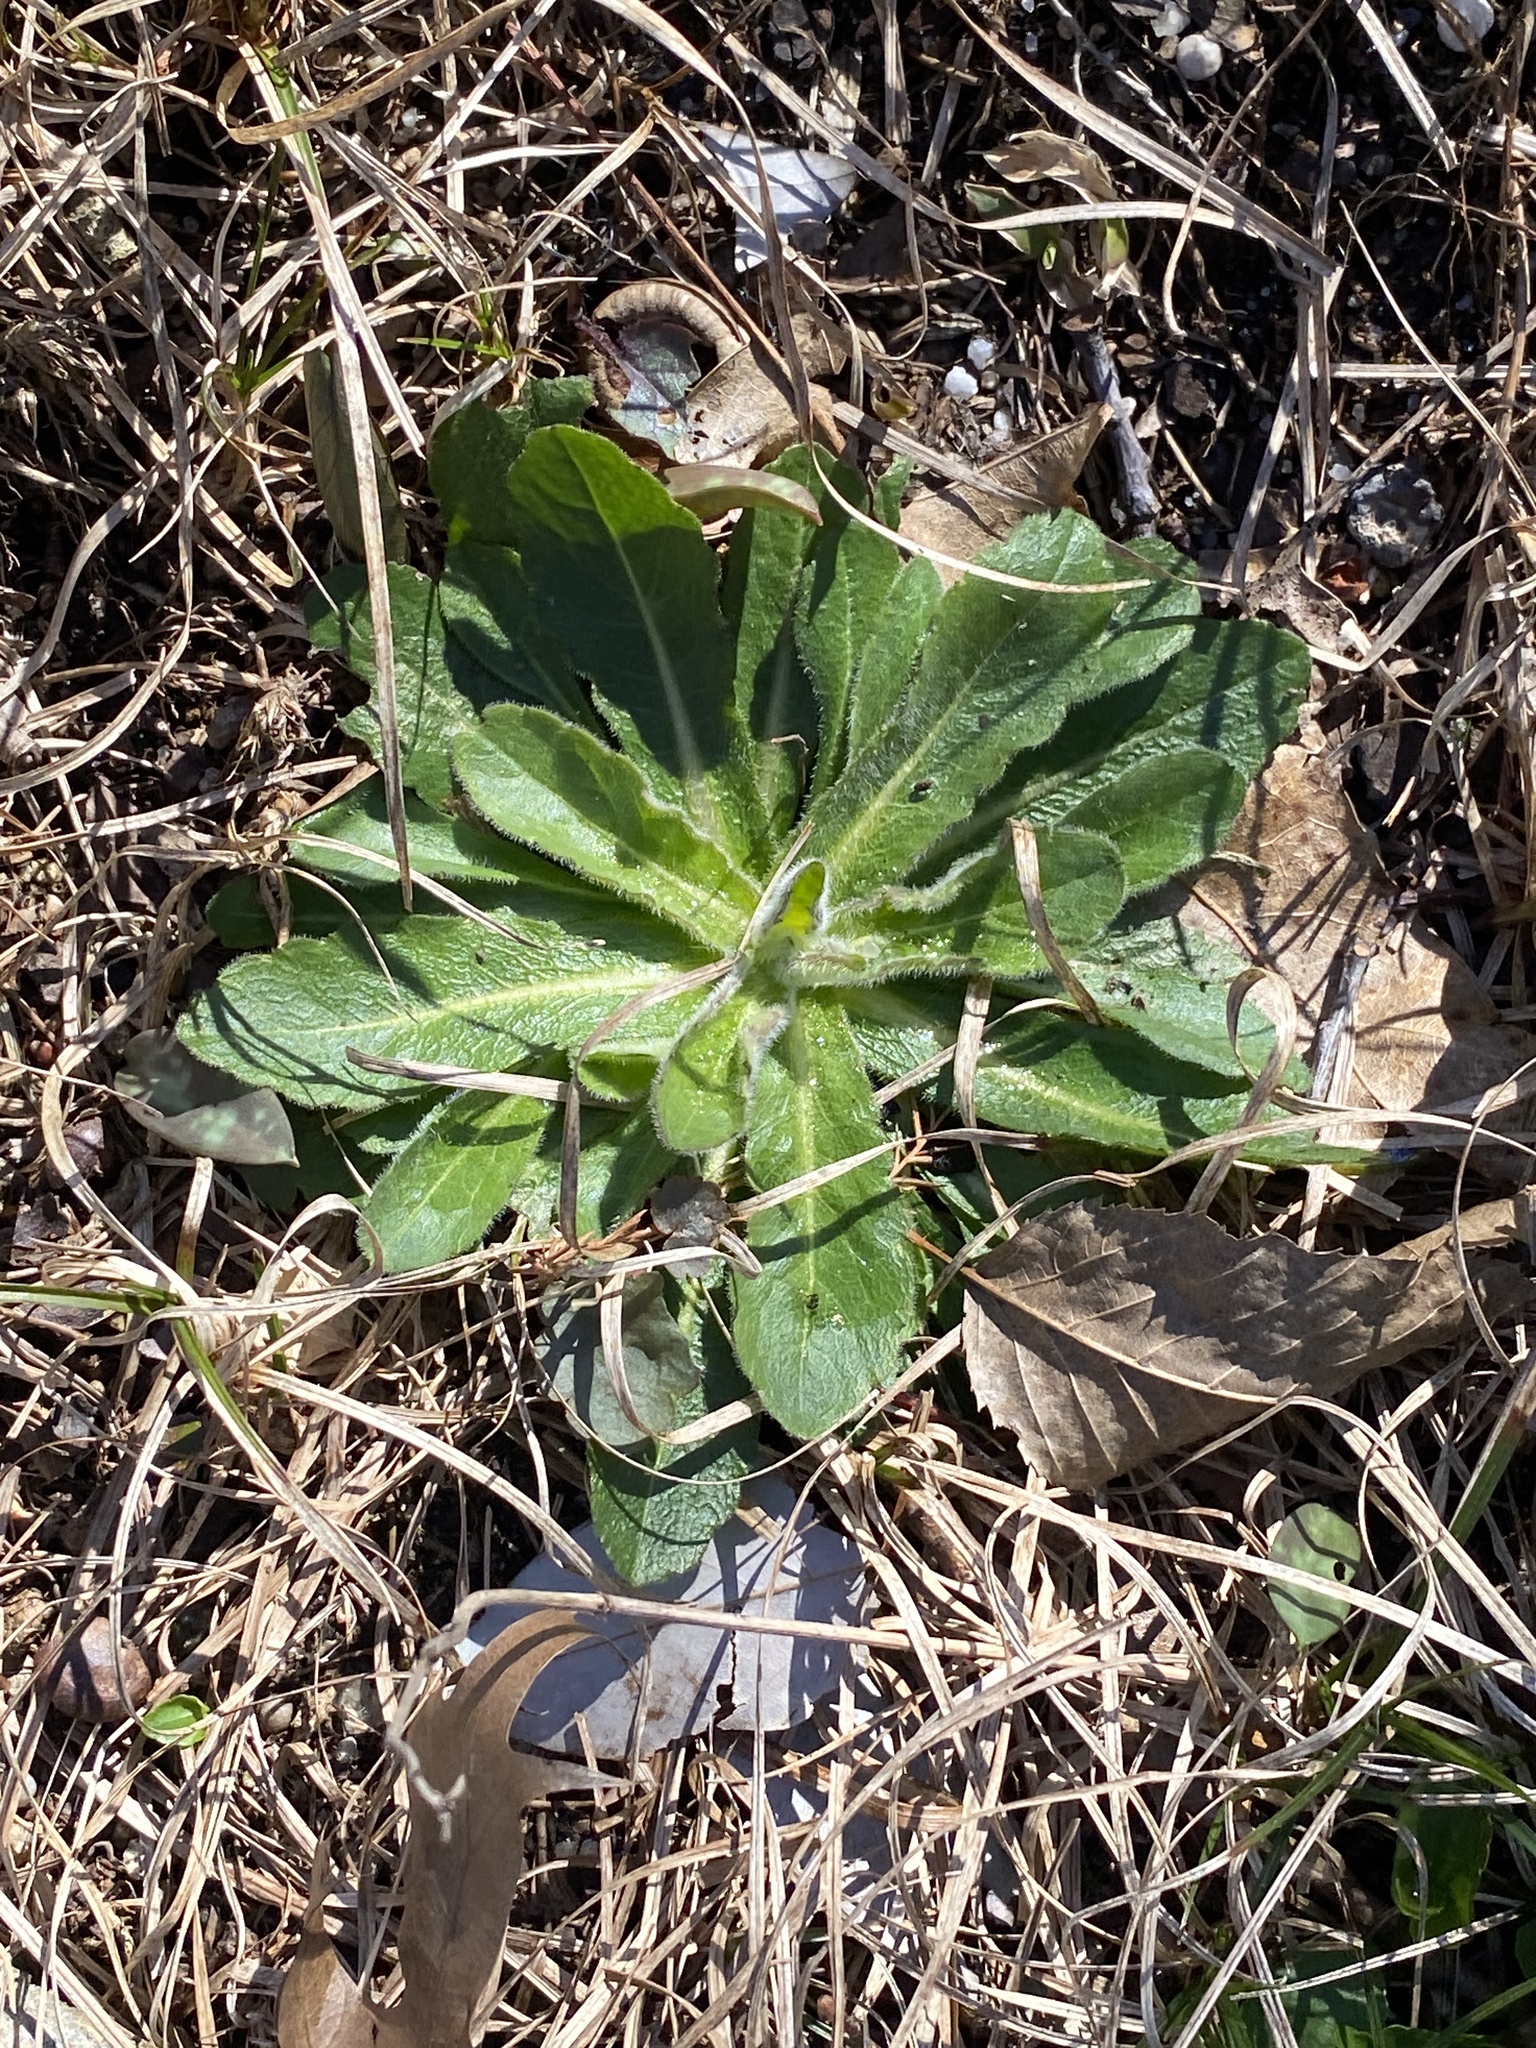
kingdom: Plantae
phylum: Tracheophyta
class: Magnoliopsida
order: Asterales
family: Asteraceae
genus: Hypochaeris
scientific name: Hypochaeris radicata
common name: Flatweed
